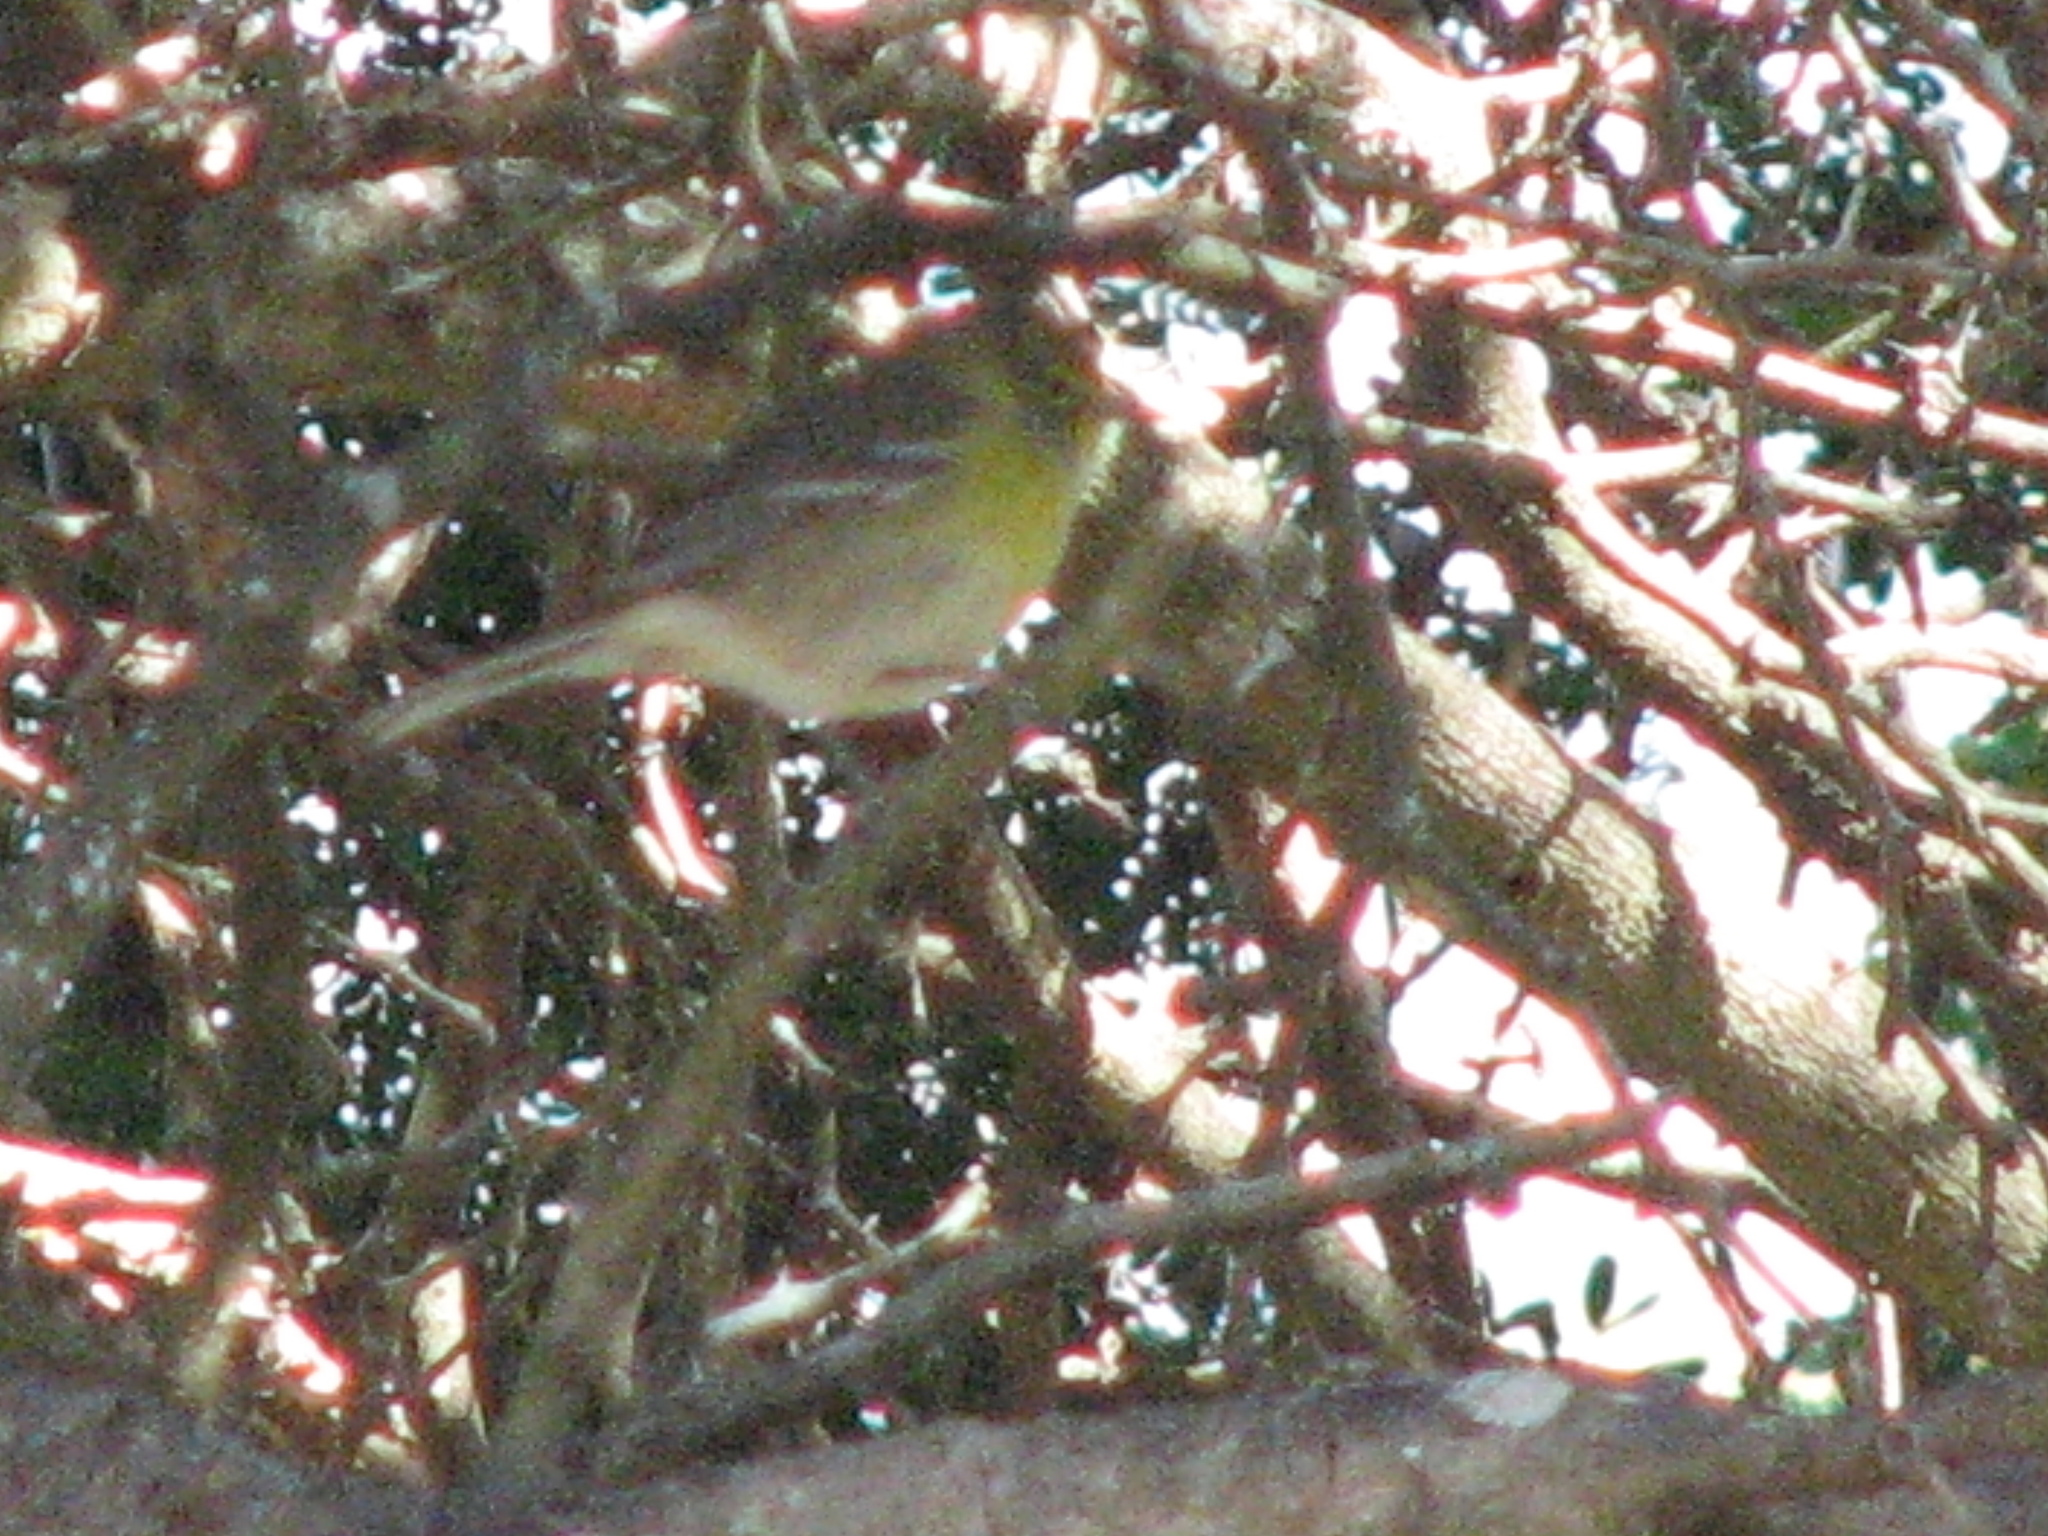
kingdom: Animalia
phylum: Chordata
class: Aves
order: Passeriformes
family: Parulidae
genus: Setophaga
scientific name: Setophaga pinus
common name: Pine warbler
